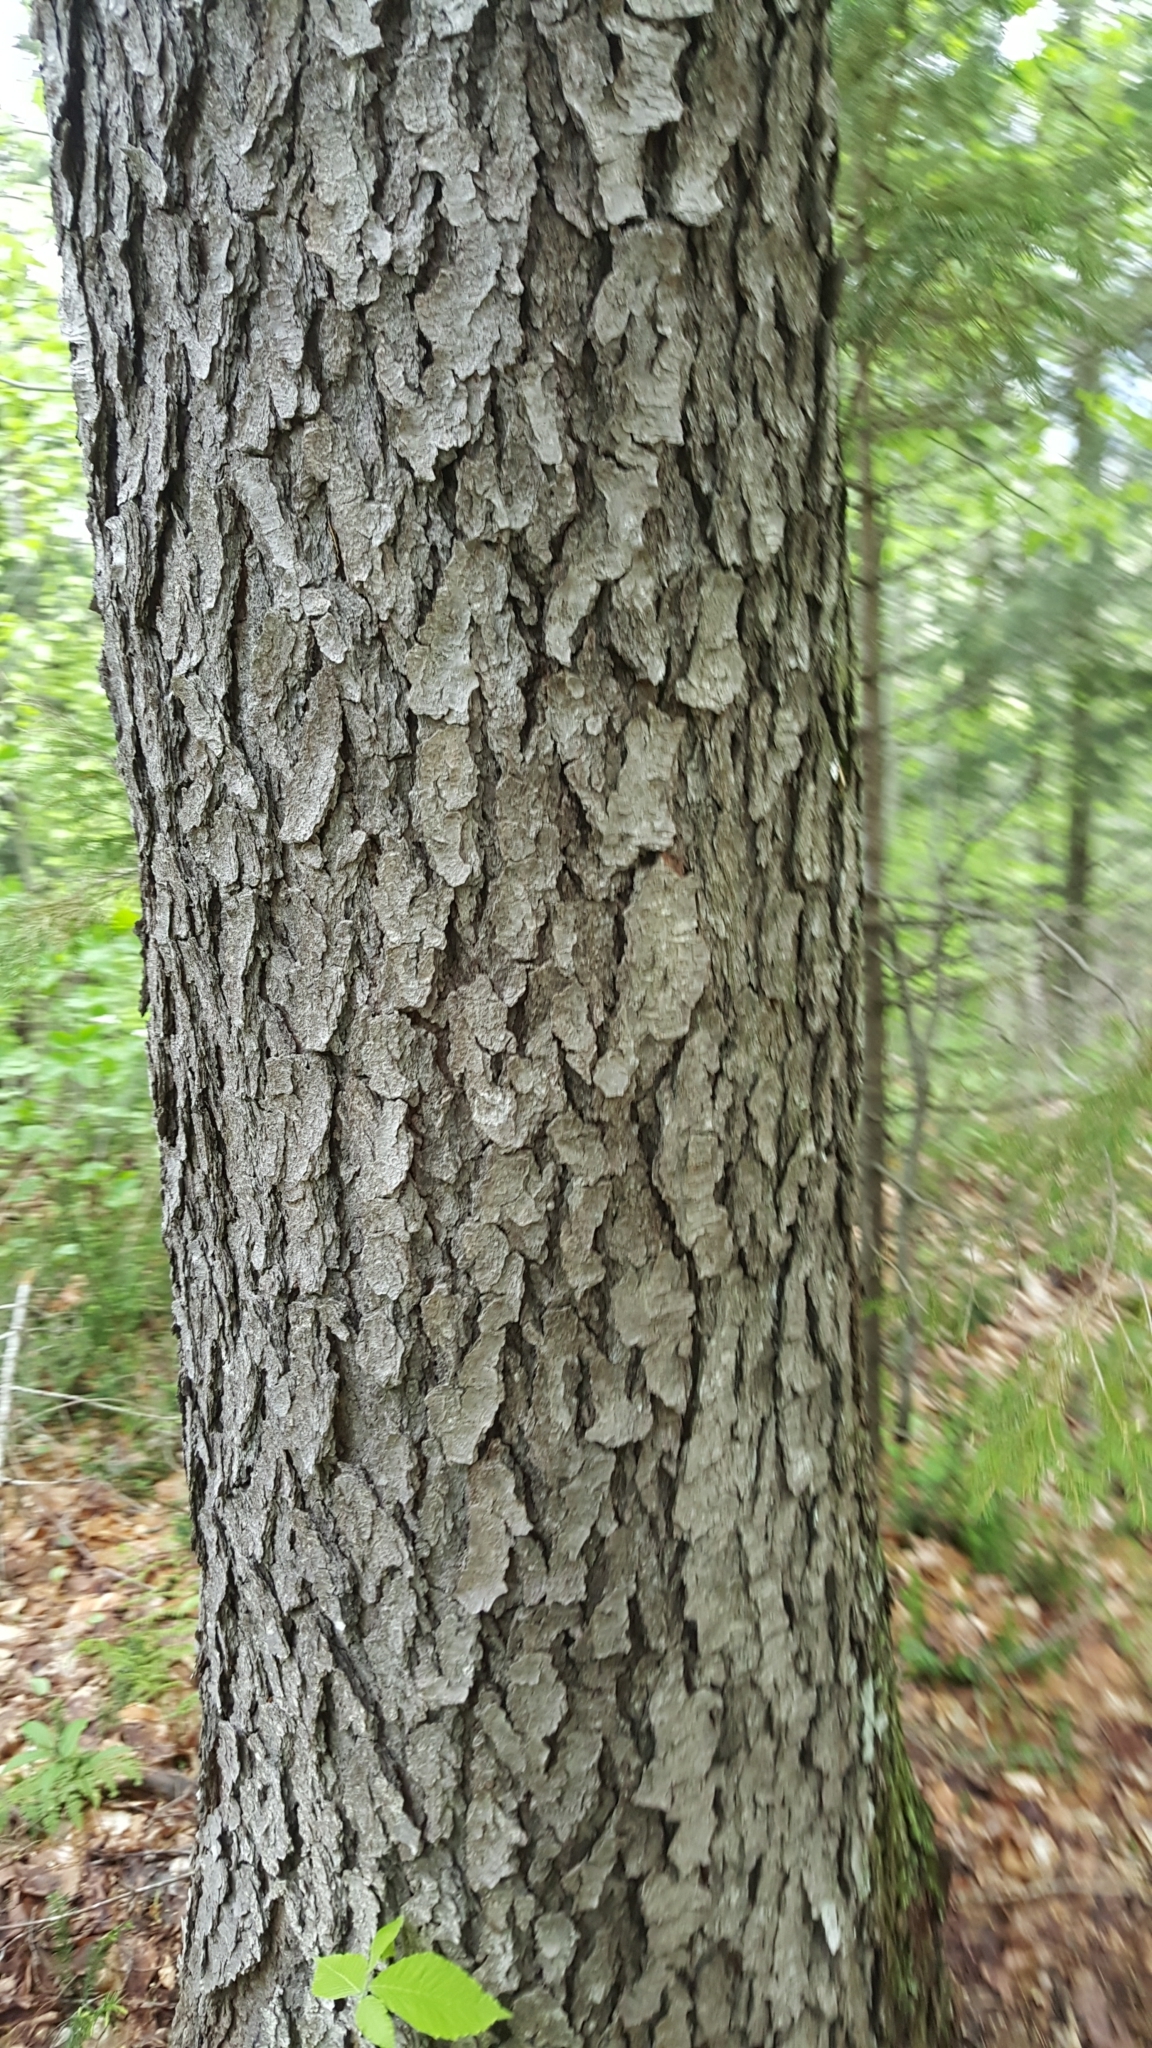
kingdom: Plantae
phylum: Tracheophyta
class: Magnoliopsida
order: Rosales
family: Rosaceae
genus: Prunus
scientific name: Prunus serotina
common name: Black cherry
